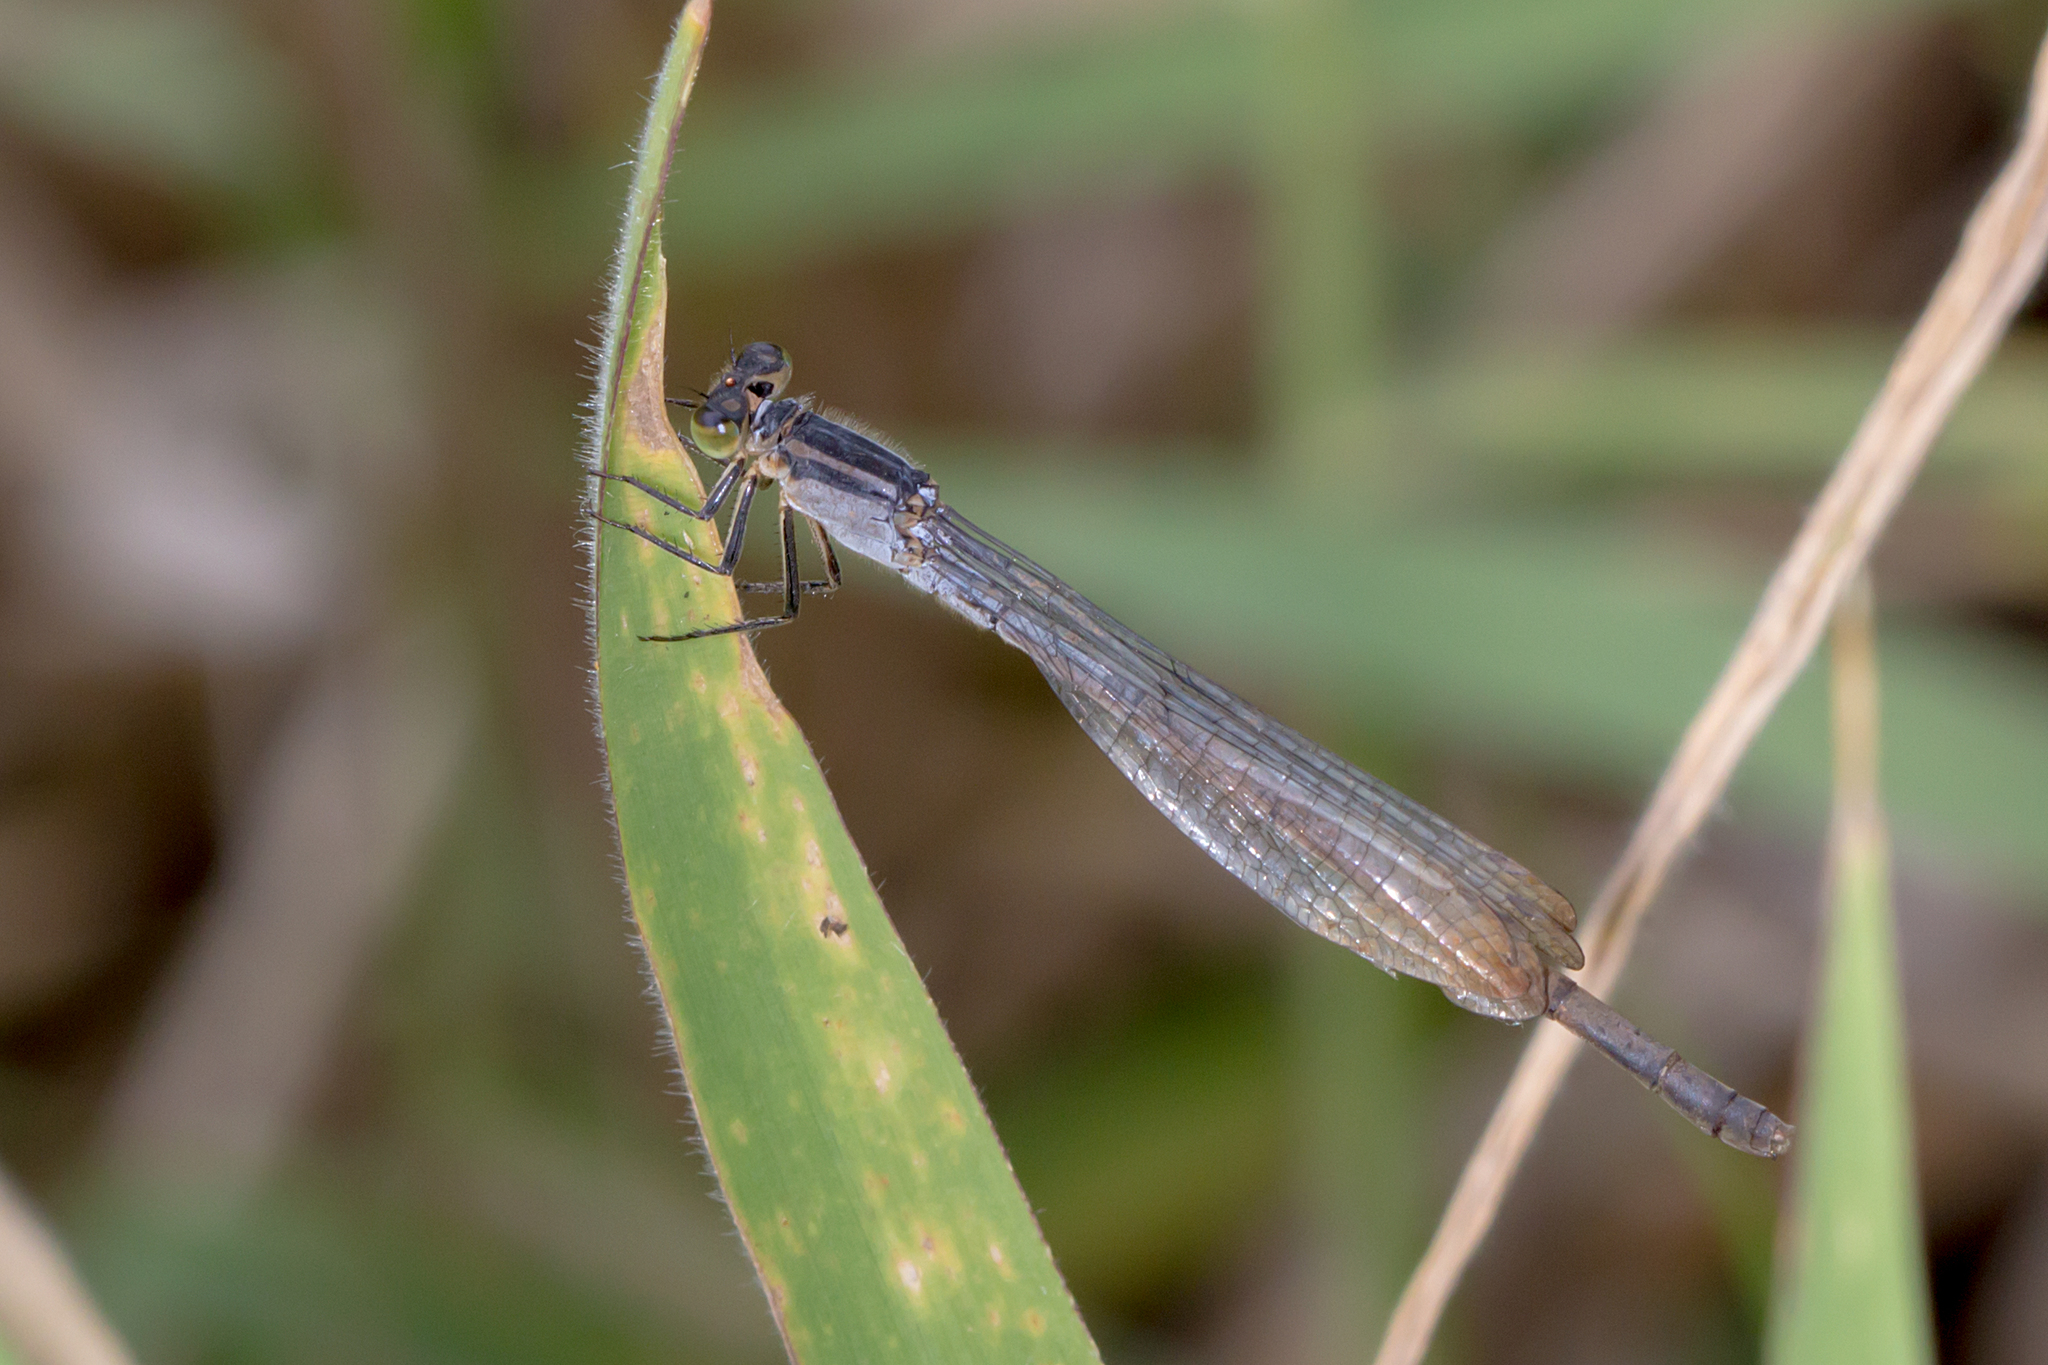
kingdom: Animalia
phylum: Arthropoda
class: Insecta
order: Odonata
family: Coenagrionidae
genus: Ischnura
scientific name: Ischnura heterosticta
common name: Common bluetail
